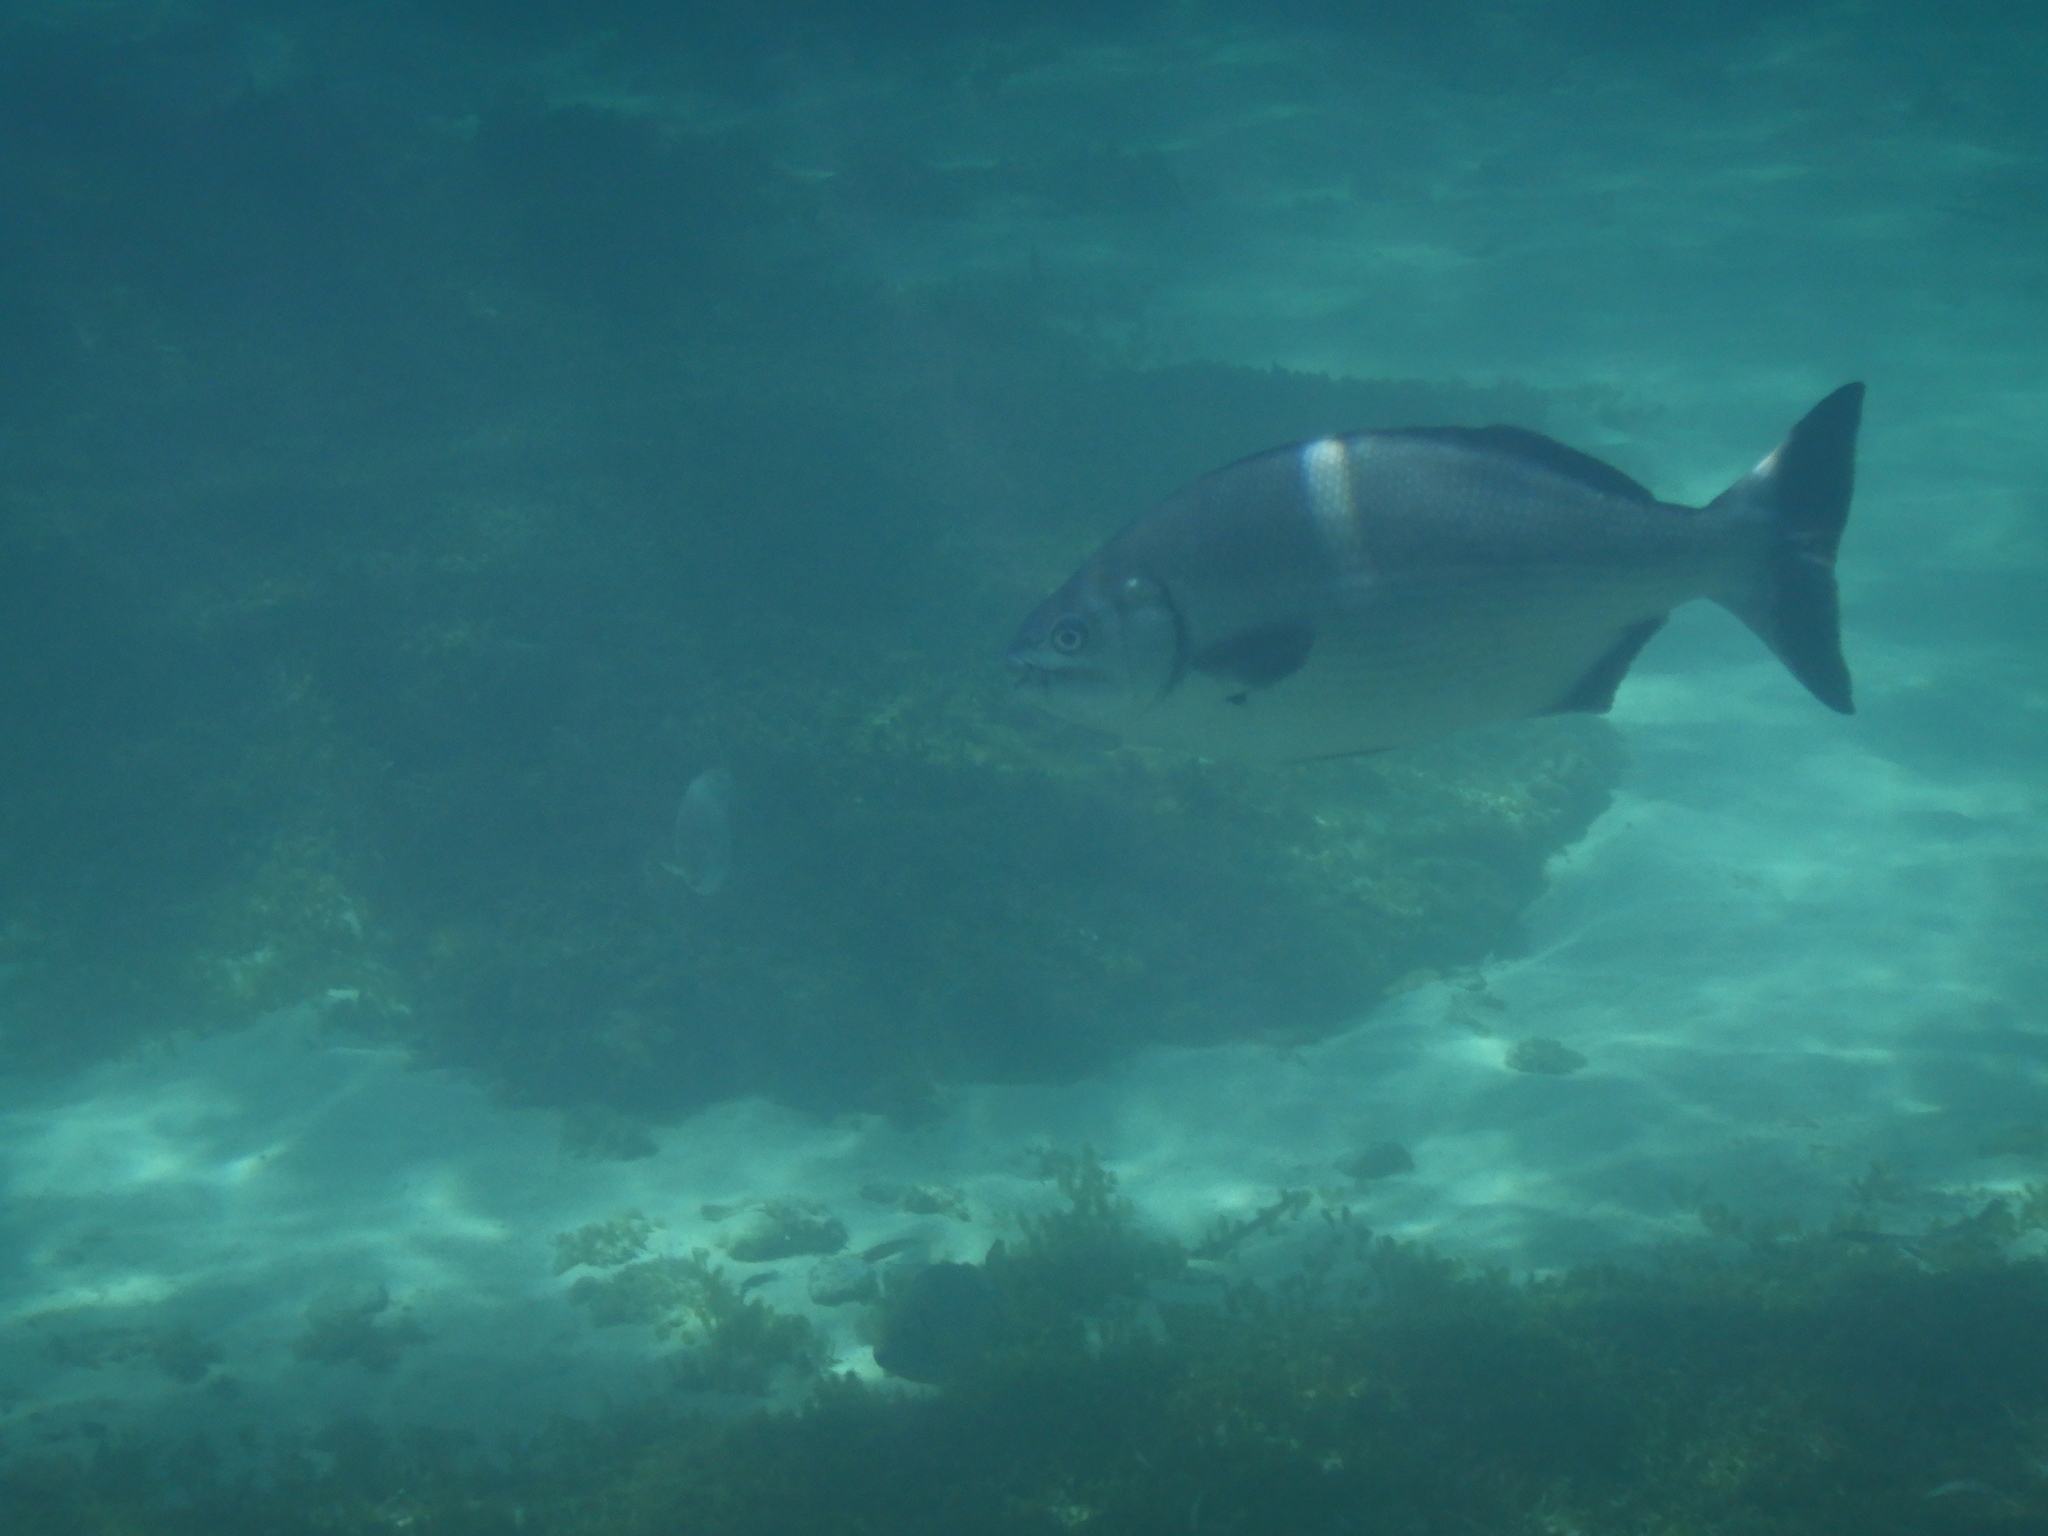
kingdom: Animalia
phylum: Chordata
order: Perciformes
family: Kyphosidae
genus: Kyphosus
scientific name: Kyphosus sydneyanus
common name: Silver drummer
